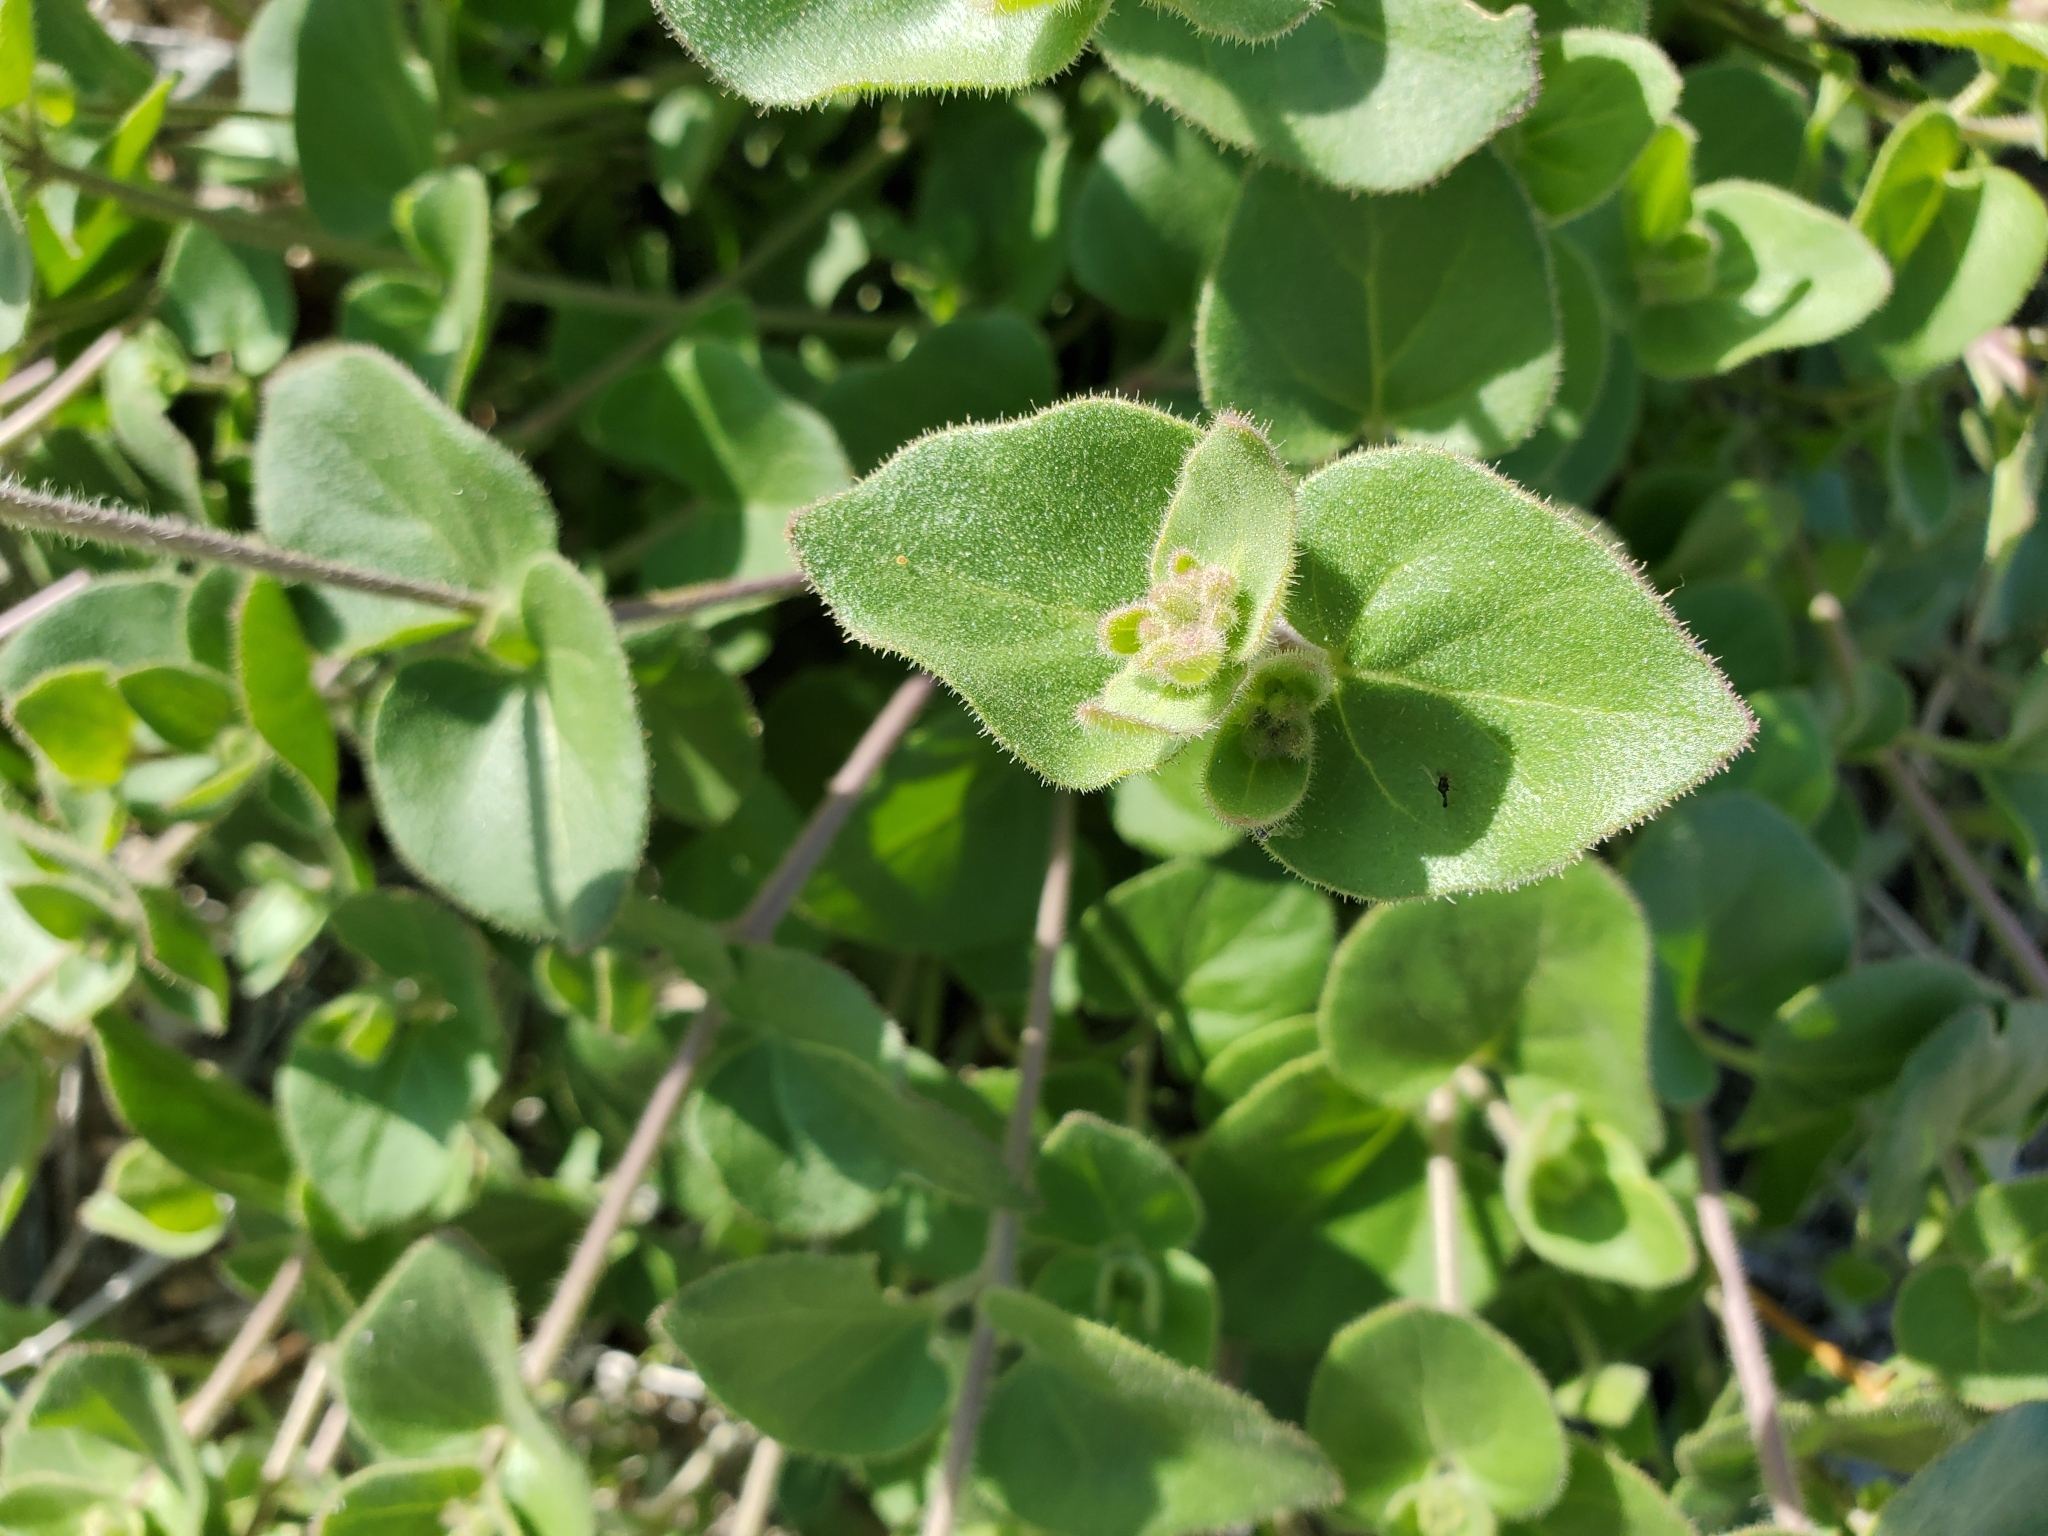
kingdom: Plantae
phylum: Tracheophyta
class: Magnoliopsida
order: Caryophyllales
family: Nyctaginaceae
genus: Mirabilis
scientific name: Mirabilis laevis
